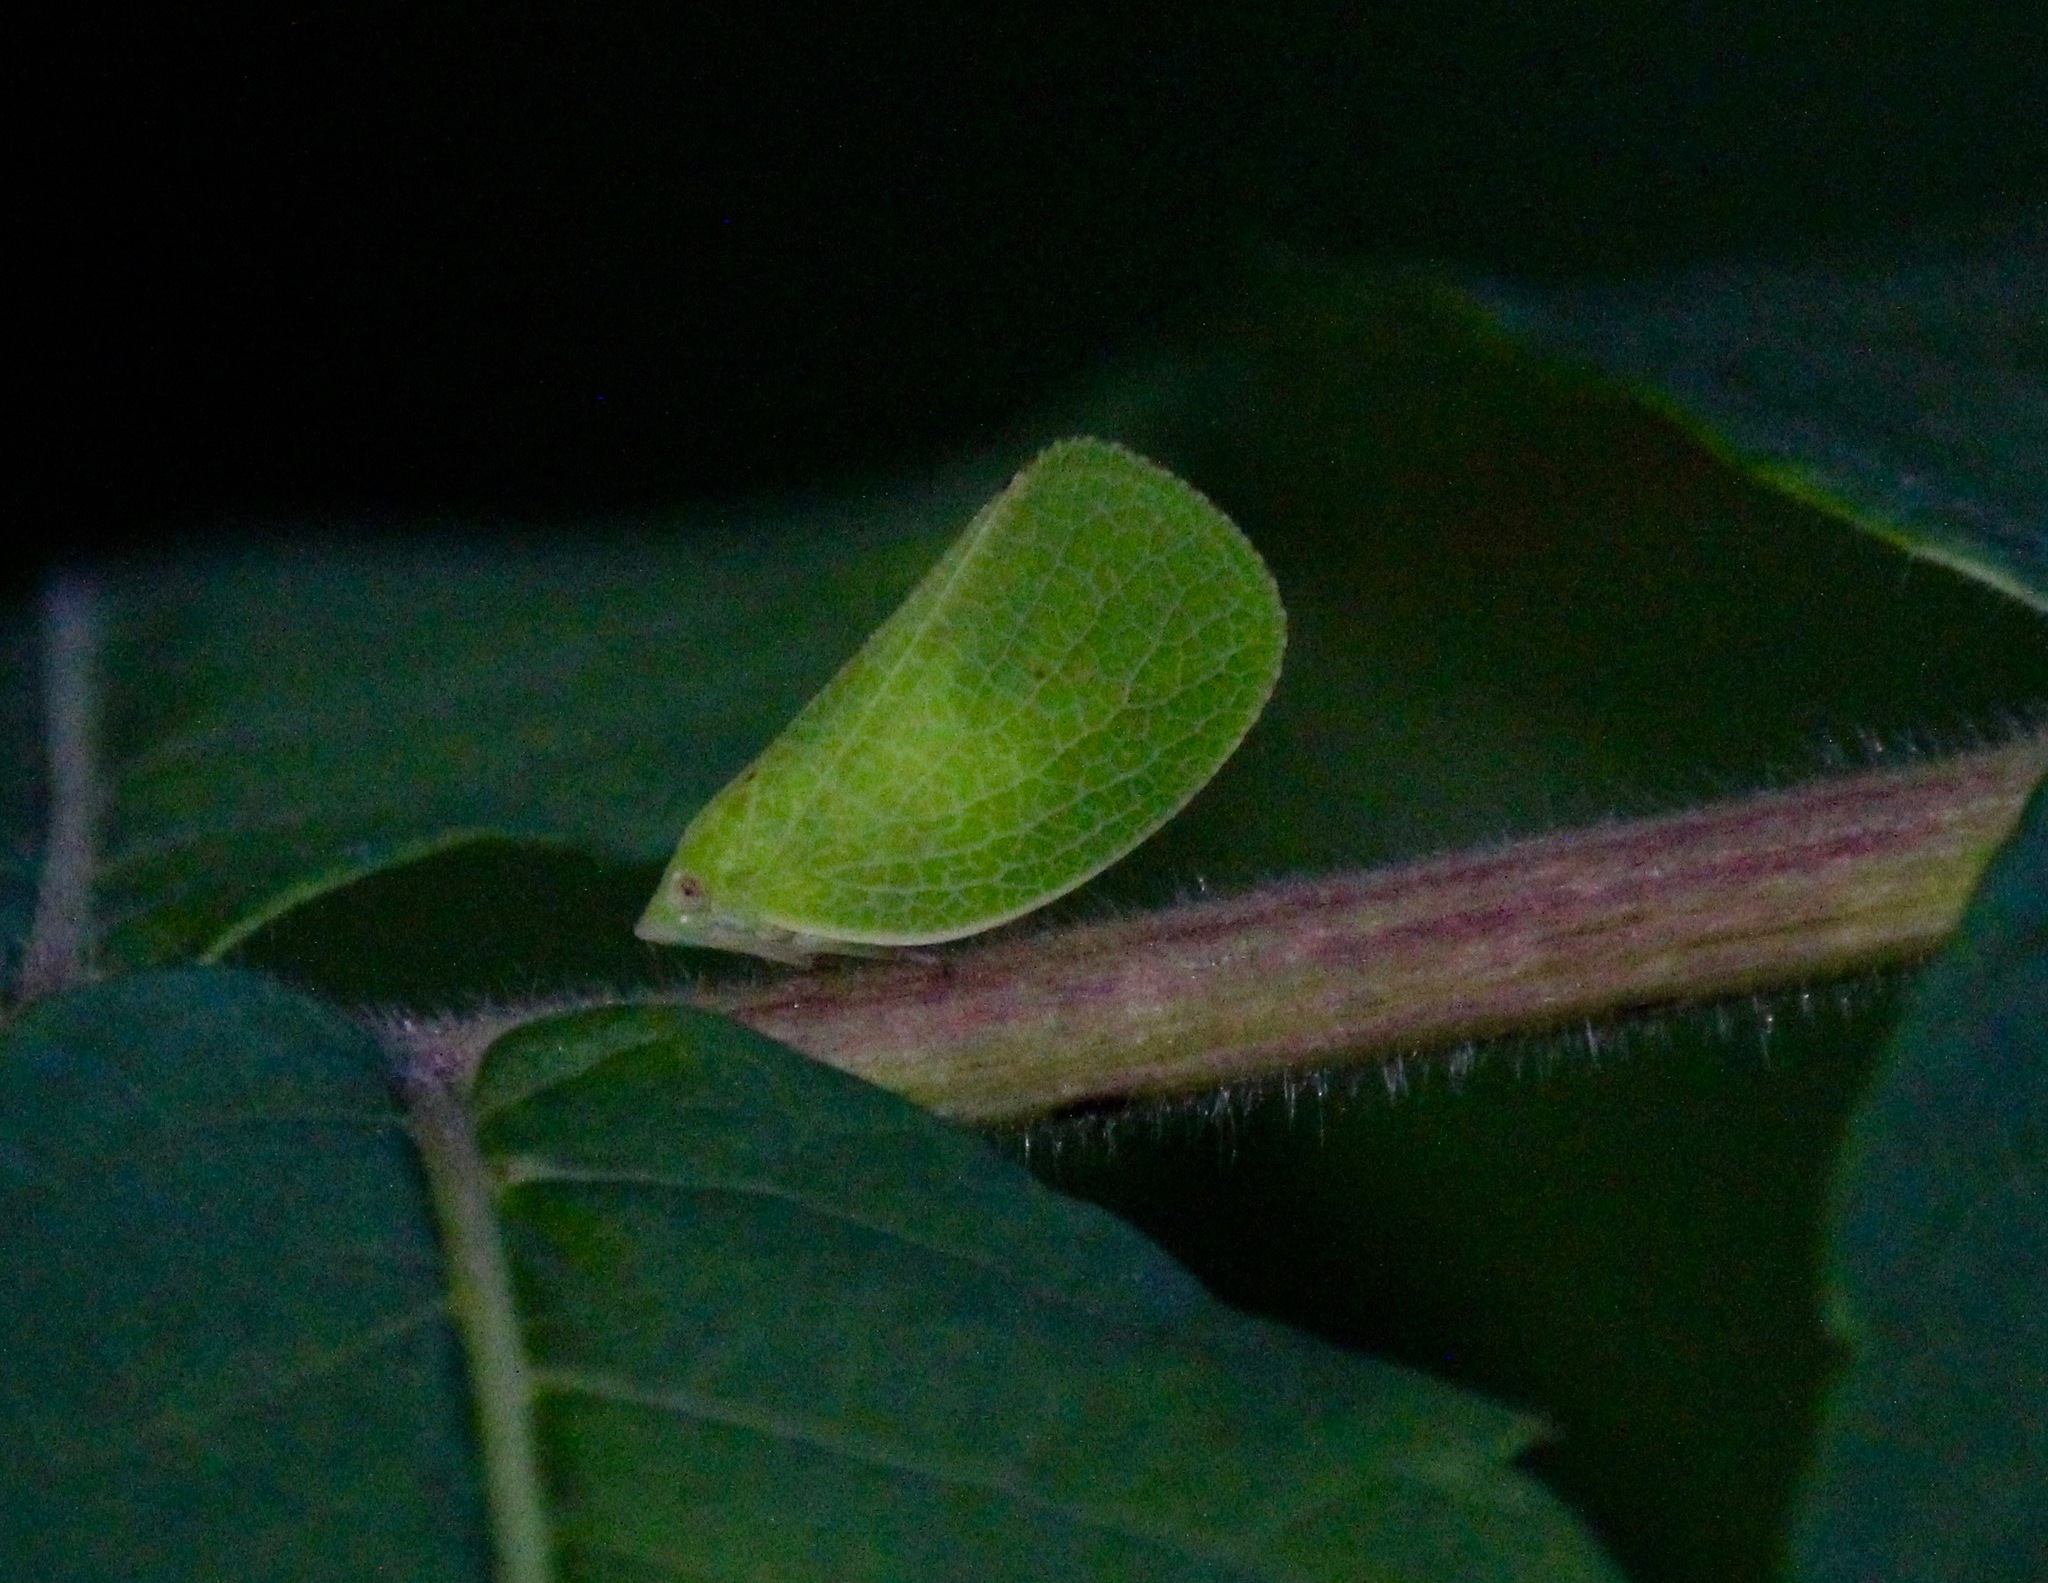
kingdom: Animalia
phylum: Arthropoda
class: Insecta
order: Hemiptera
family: Acanaloniidae
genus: Acanalonia
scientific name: Acanalonia conica
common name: Green cone-headed planthopper
